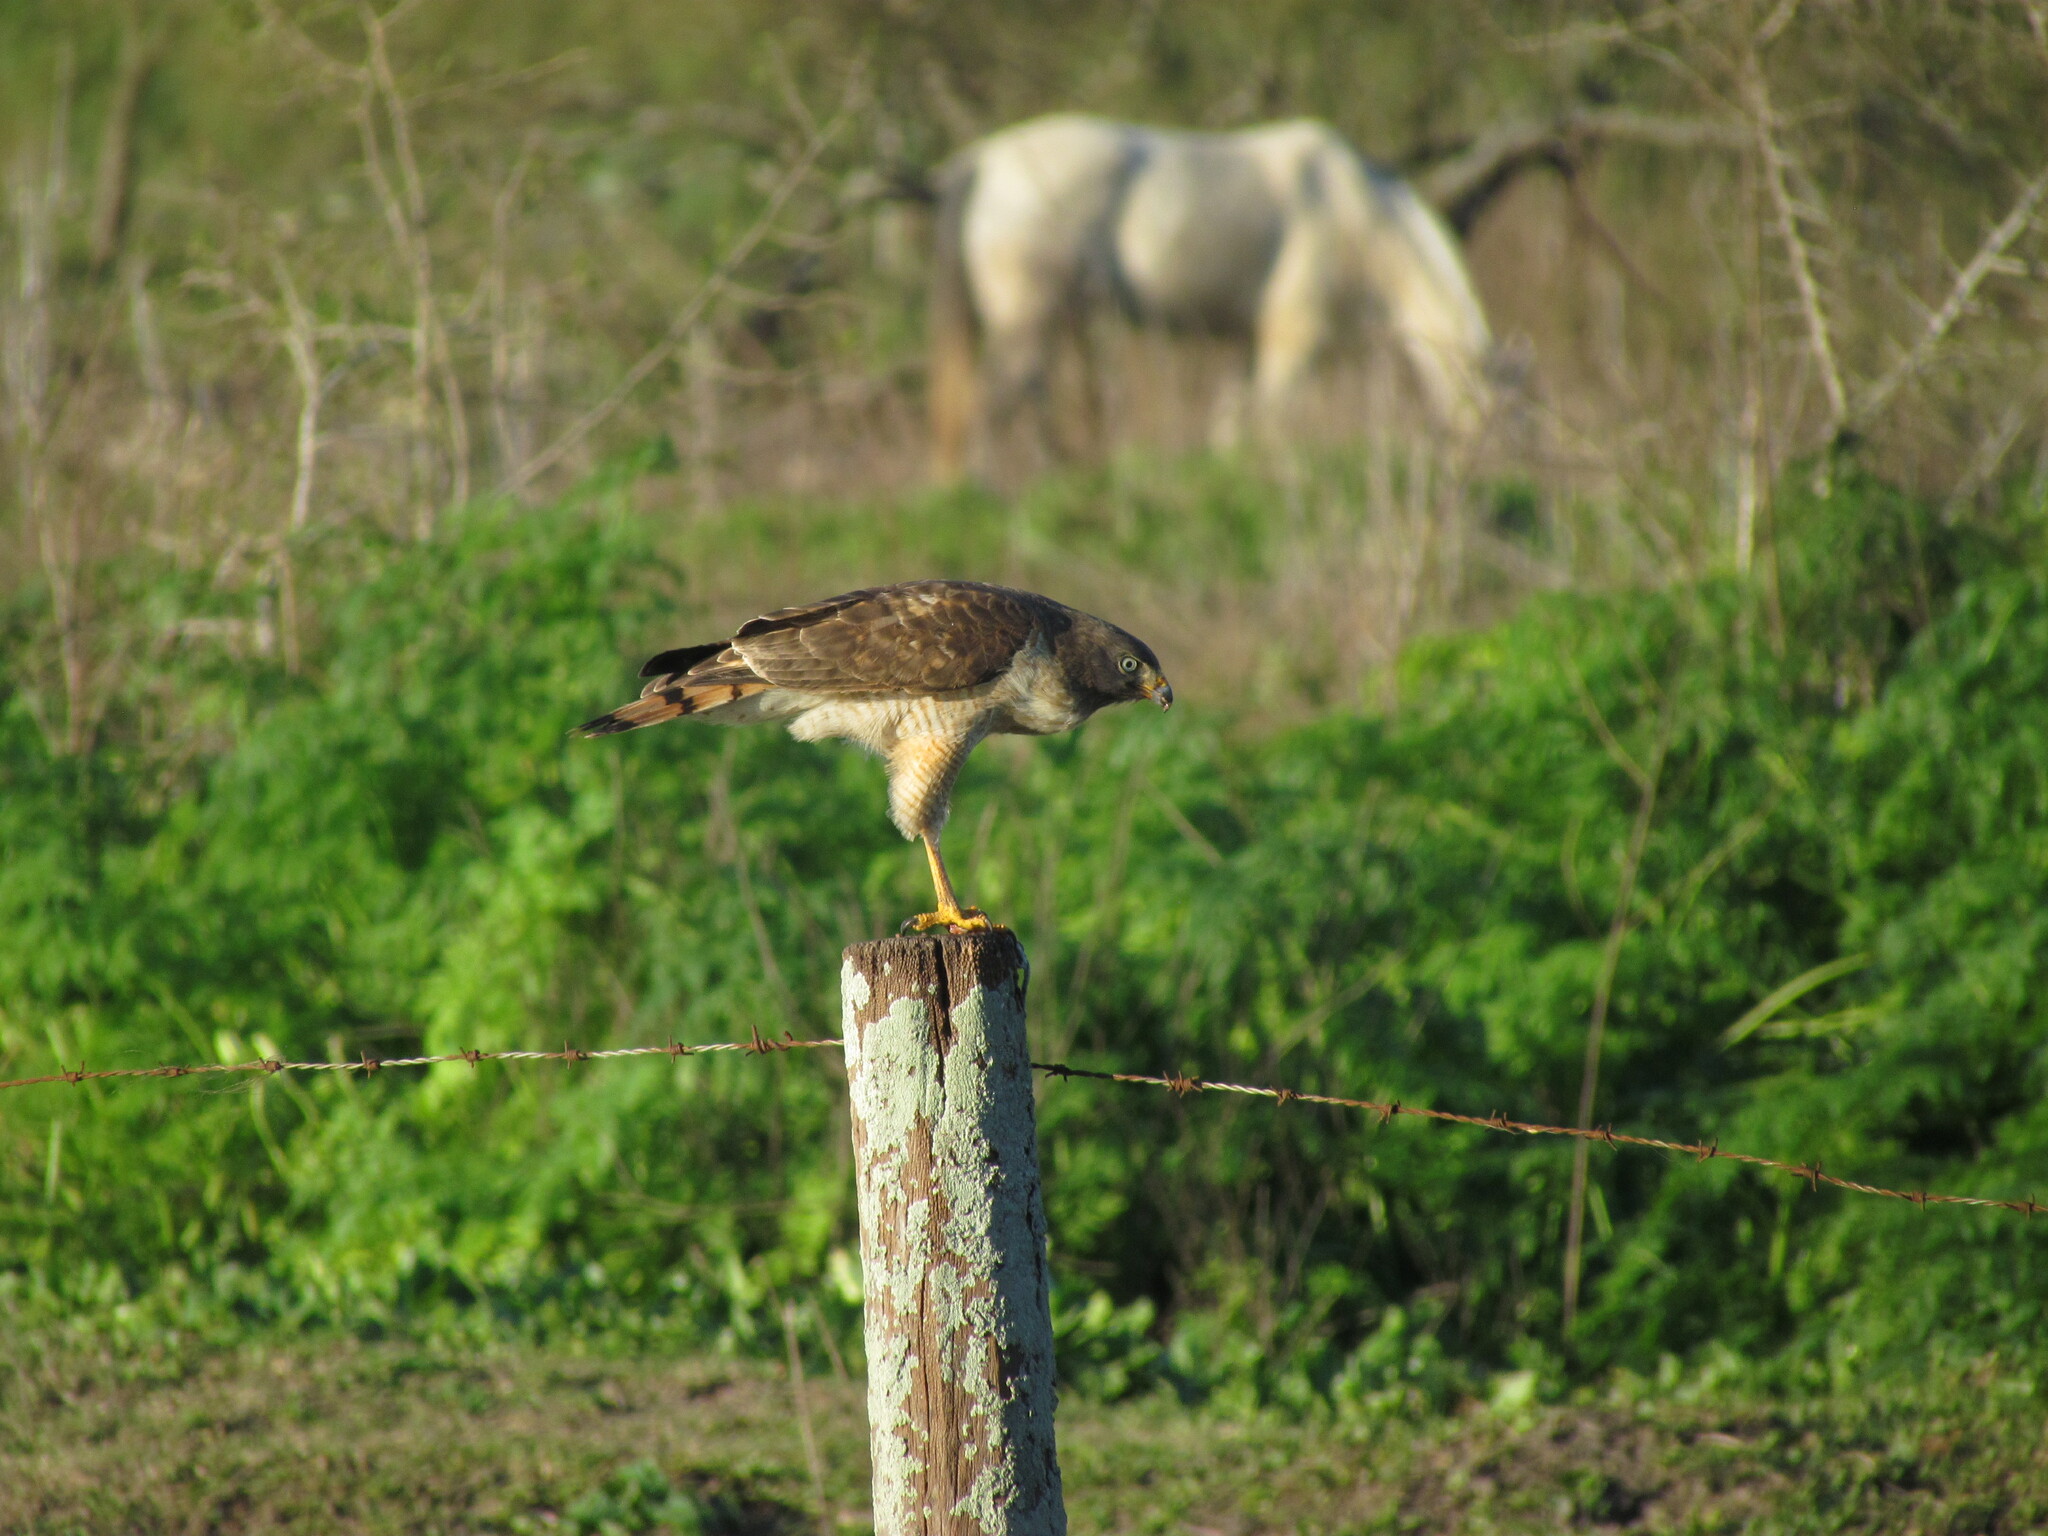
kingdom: Animalia
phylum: Chordata
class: Aves
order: Accipitriformes
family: Accipitridae
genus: Rupornis
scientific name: Rupornis magnirostris
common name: Roadside hawk
